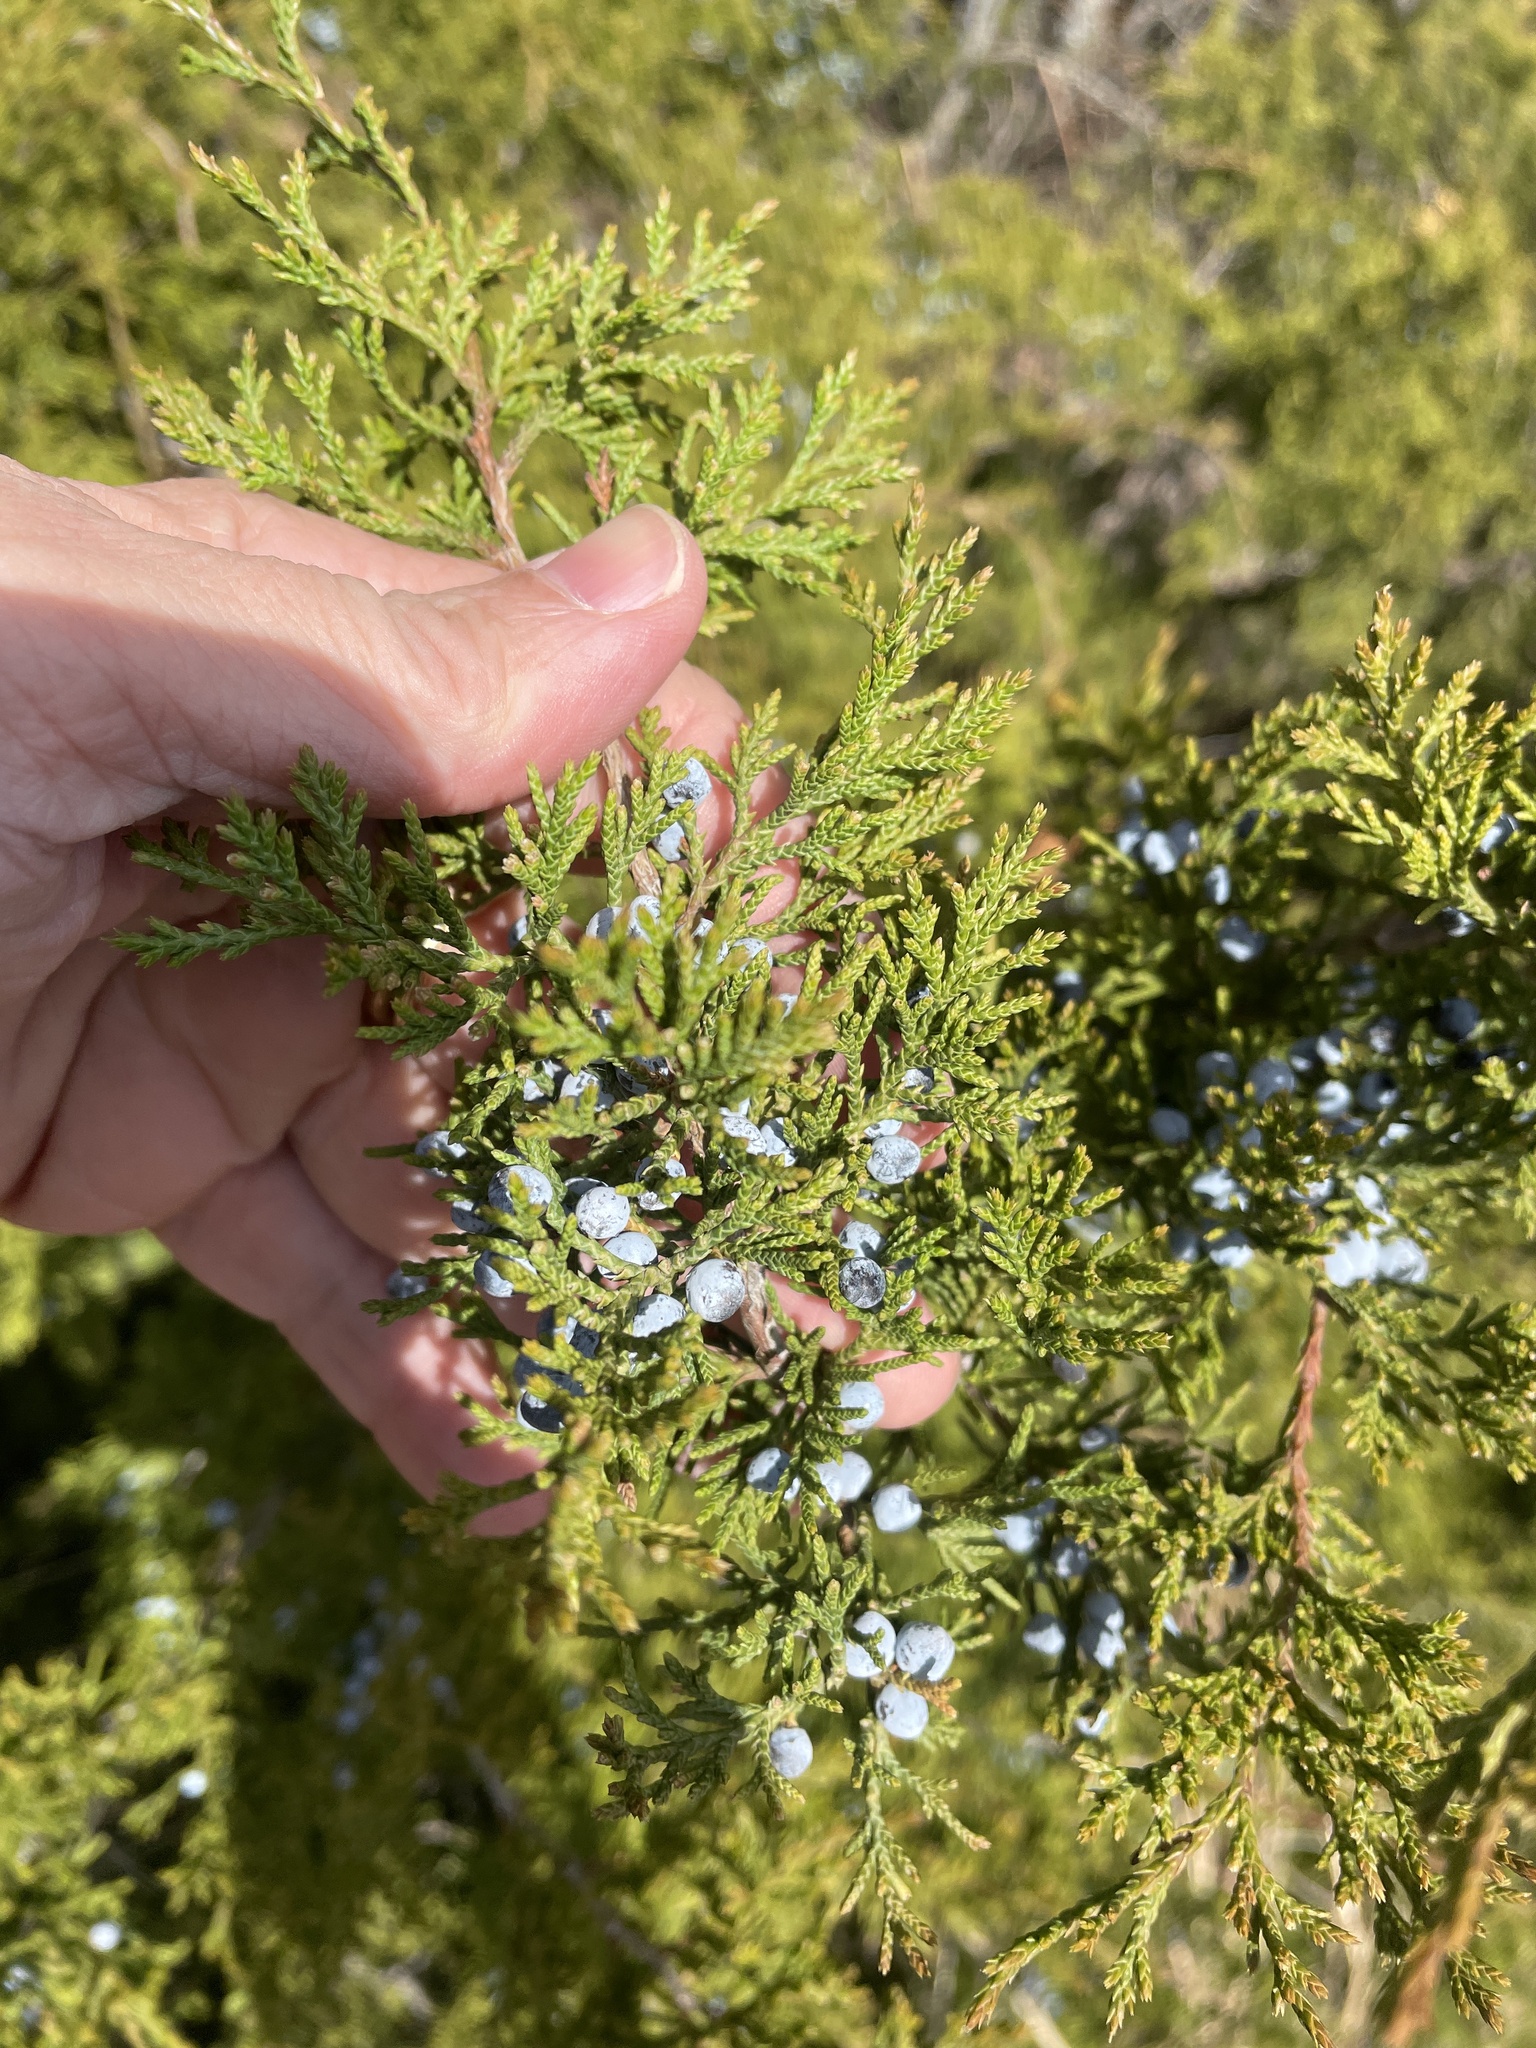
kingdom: Plantae
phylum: Tracheophyta
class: Pinopsida
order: Pinales
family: Cupressaceae
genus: Juniperus
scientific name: Juniperus virginiana
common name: Red juniper
